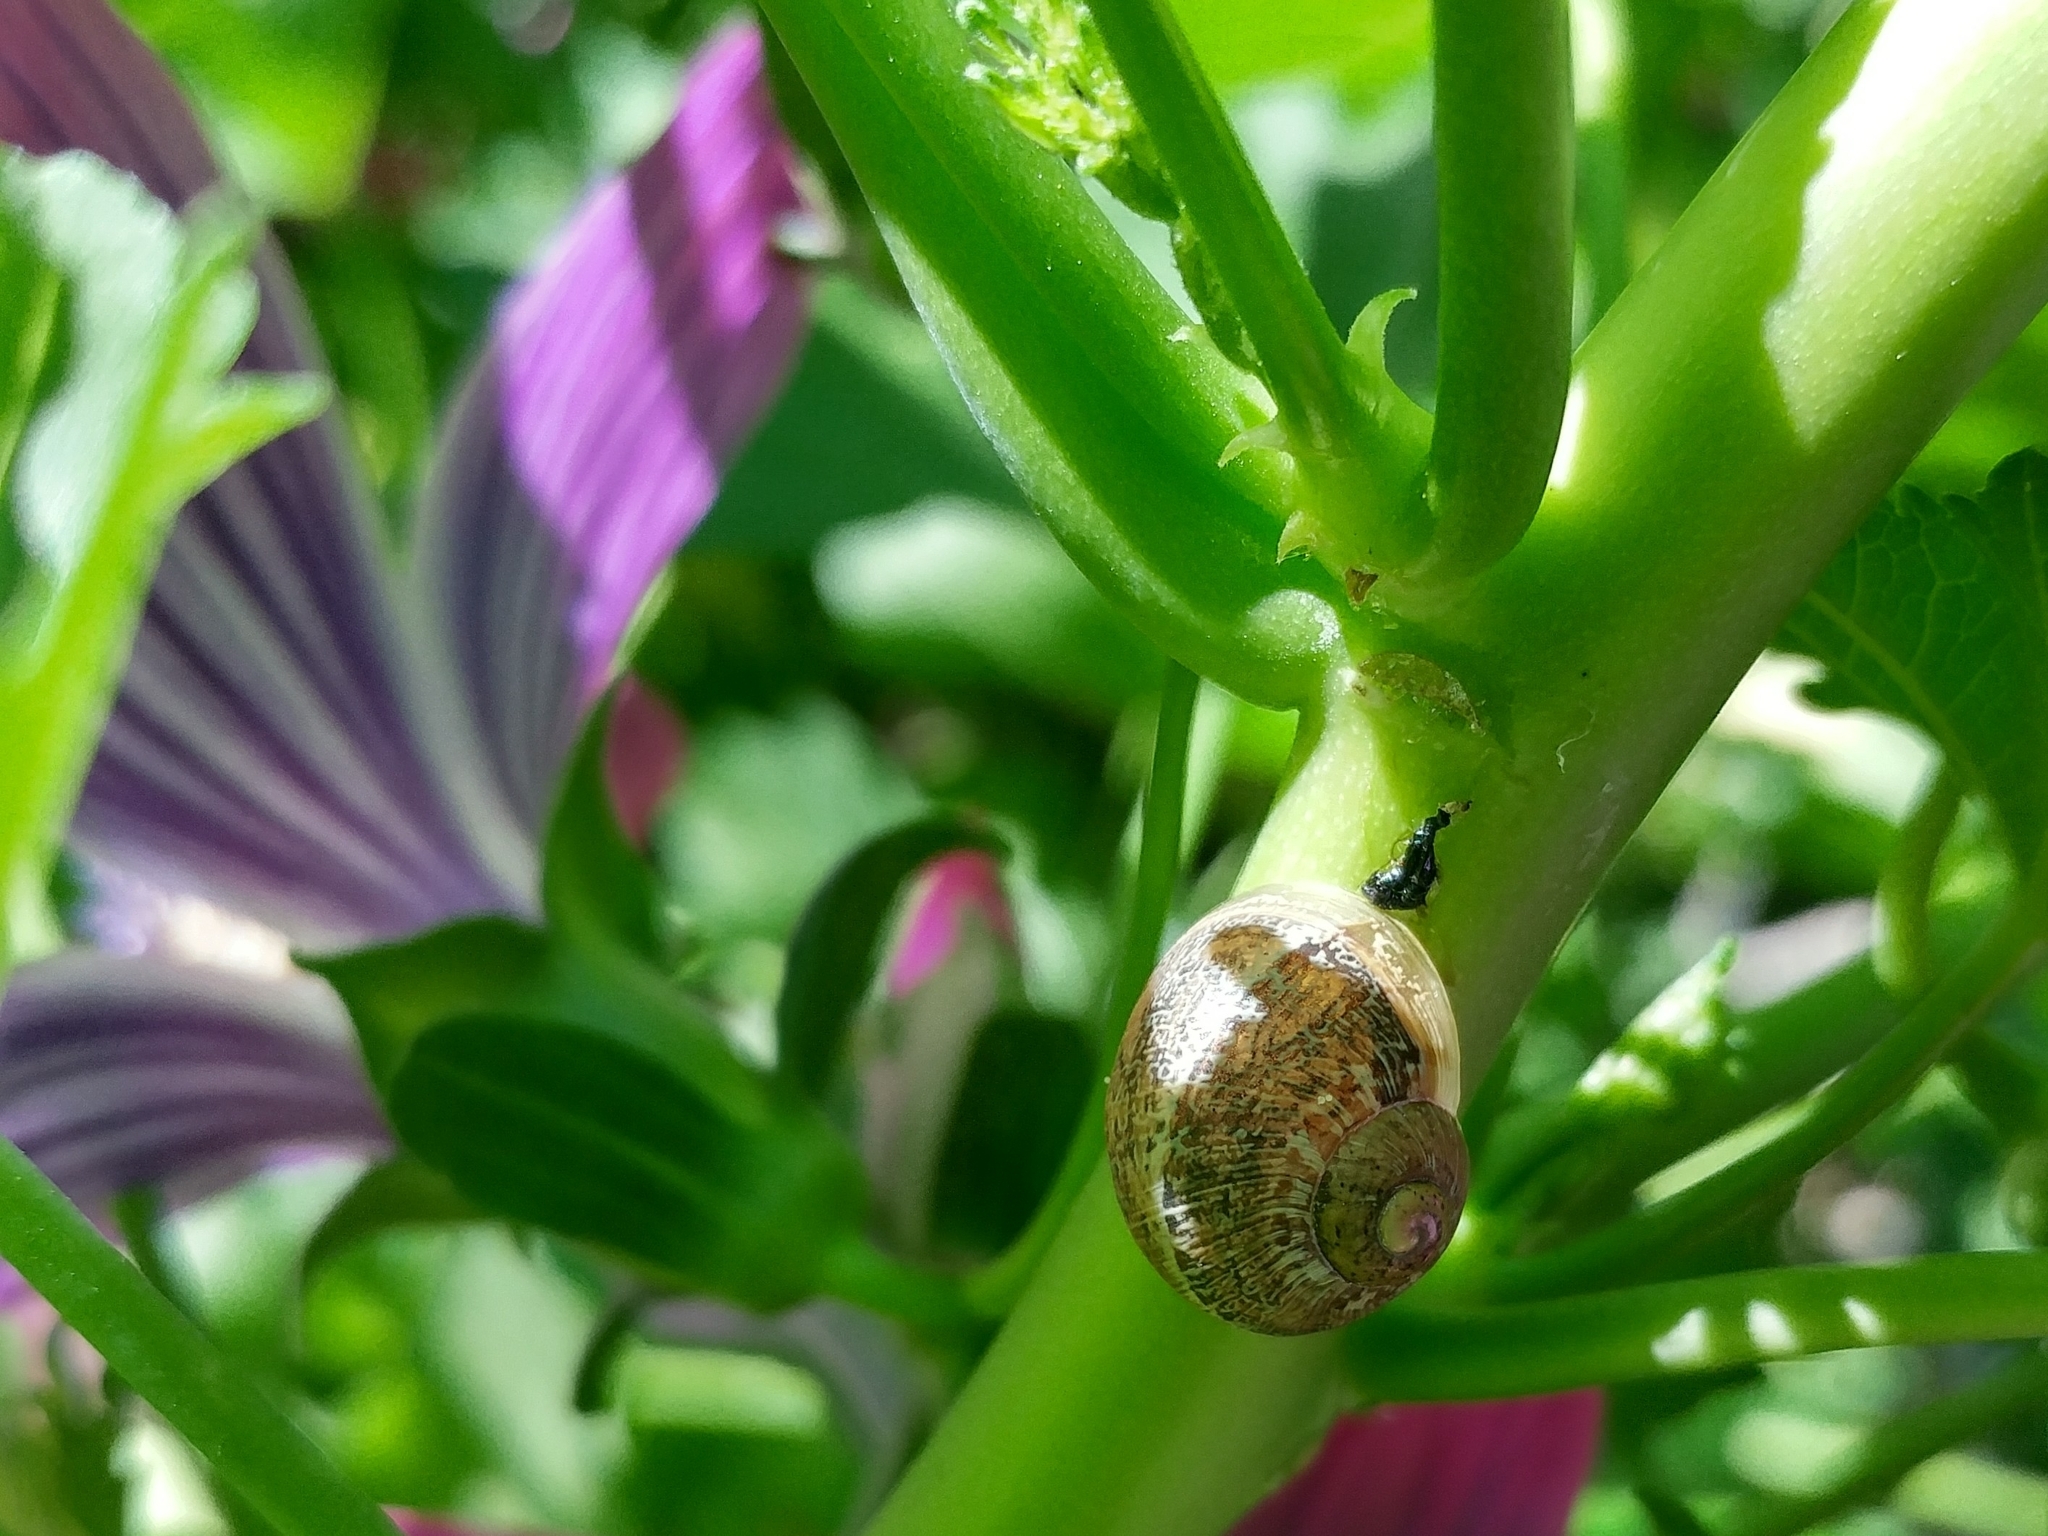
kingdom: Animalia
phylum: Mollusca
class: Gastropoda
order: Stylommatophora
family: Helicidae
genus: Cornu
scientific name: Cornu aspersum
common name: Brown garden snail
